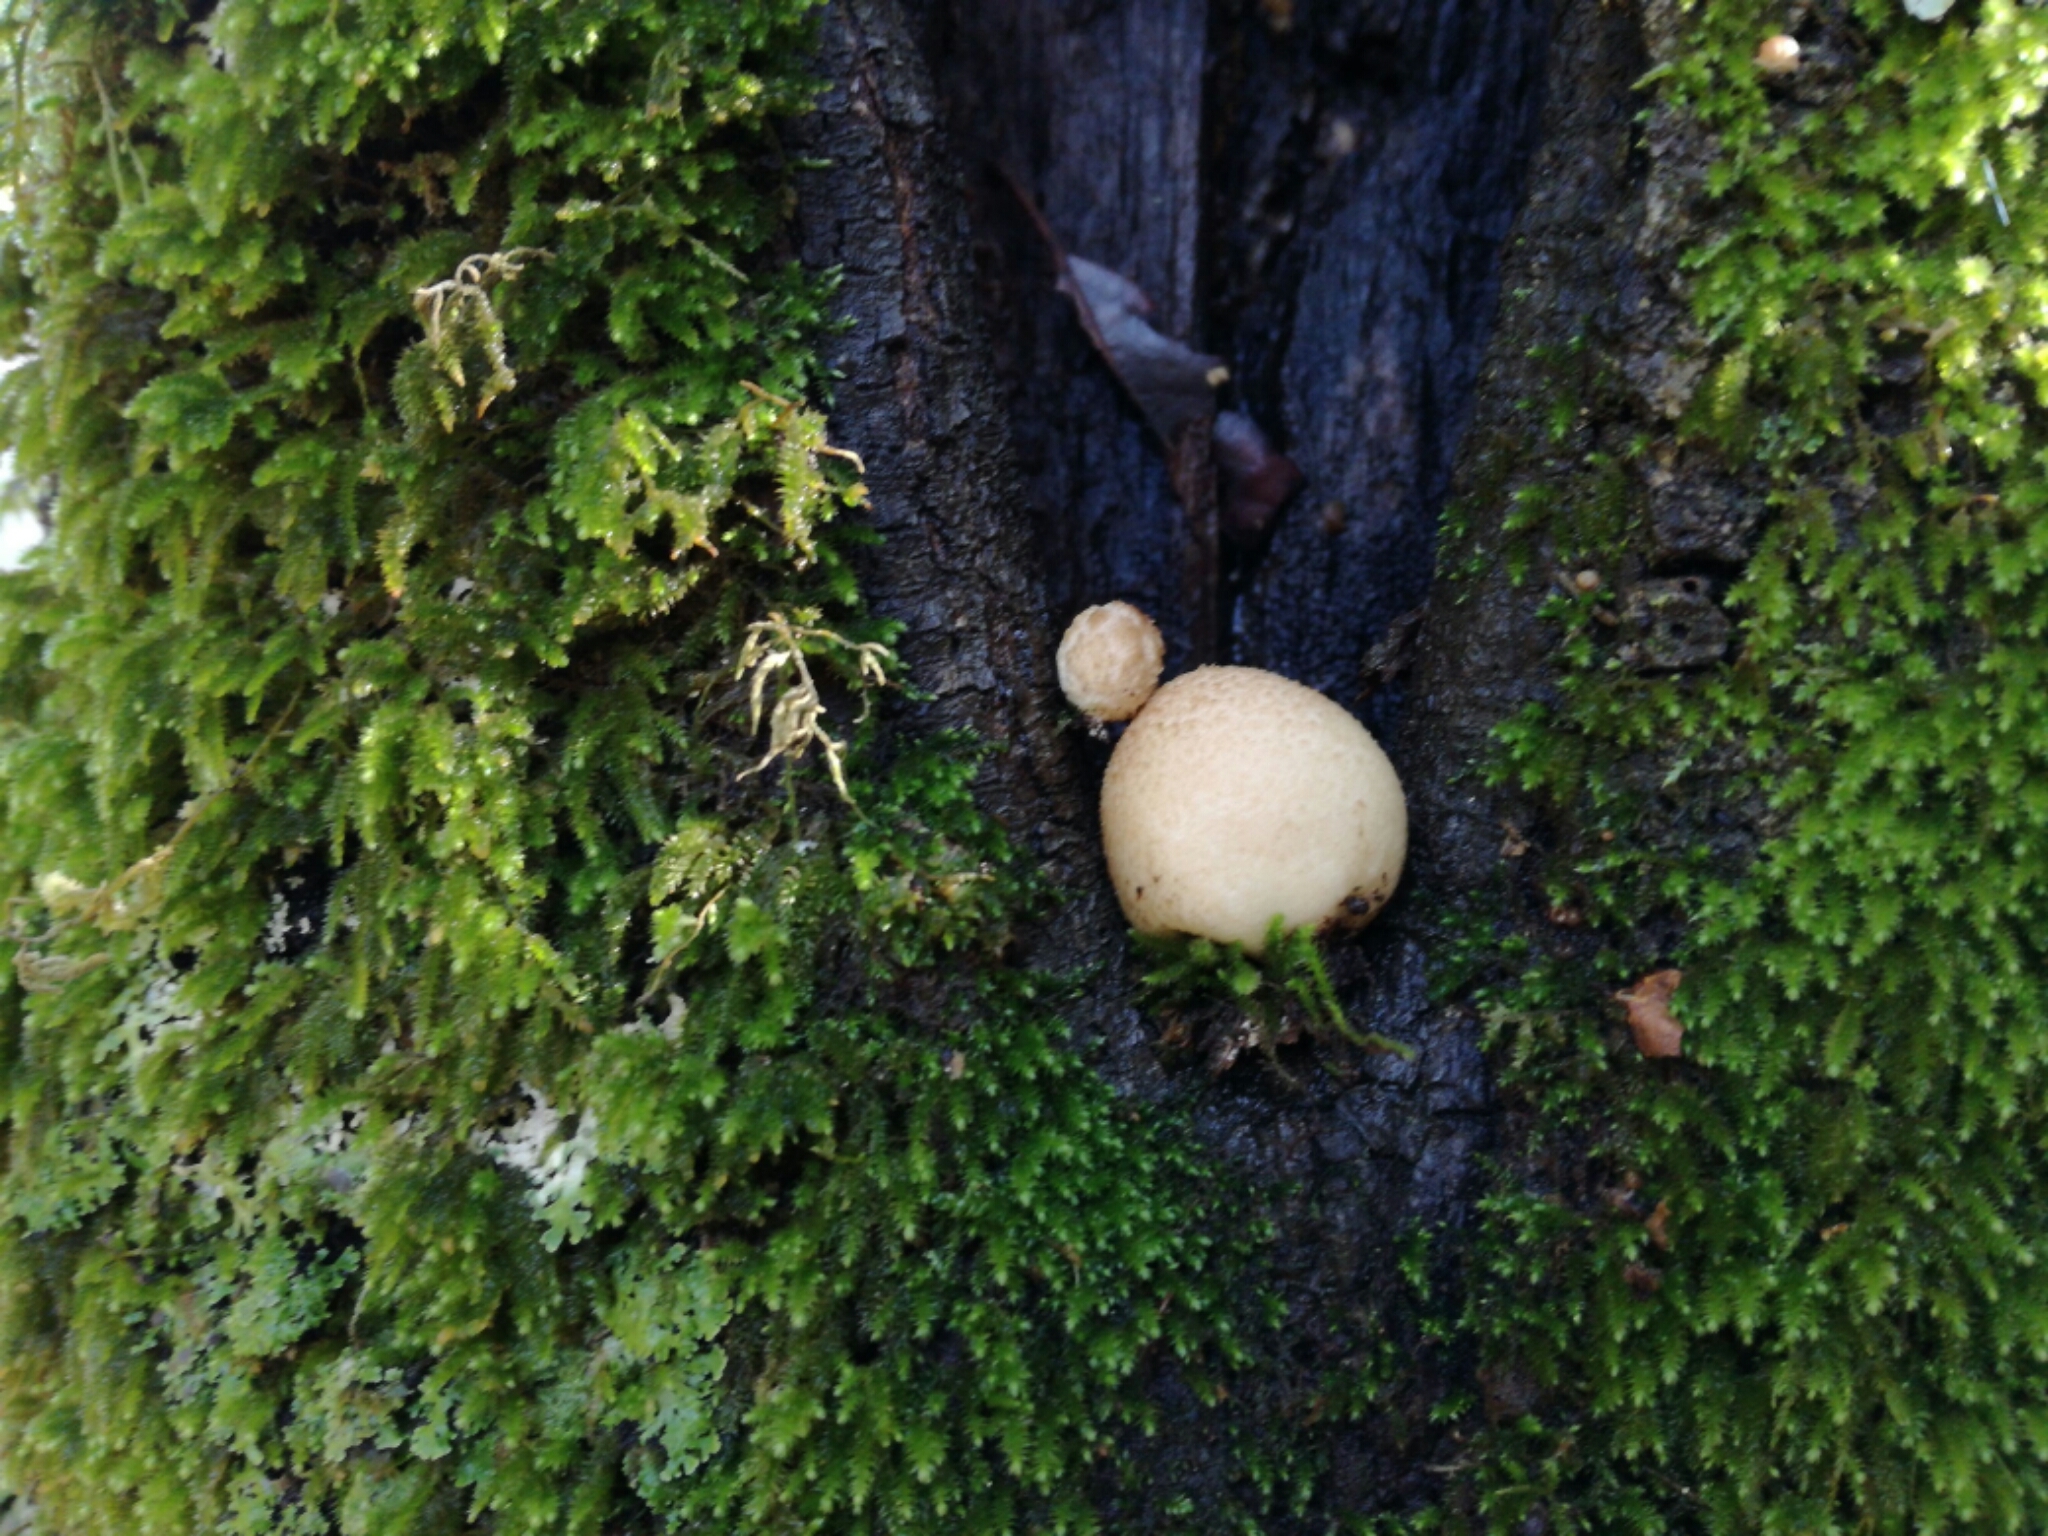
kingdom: Fungi
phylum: Basidiomycota
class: Agaricomycetes
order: Agaricales
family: Lycoperdaceae
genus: Bryoperdon
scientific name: Bryoperdon acuminatum
